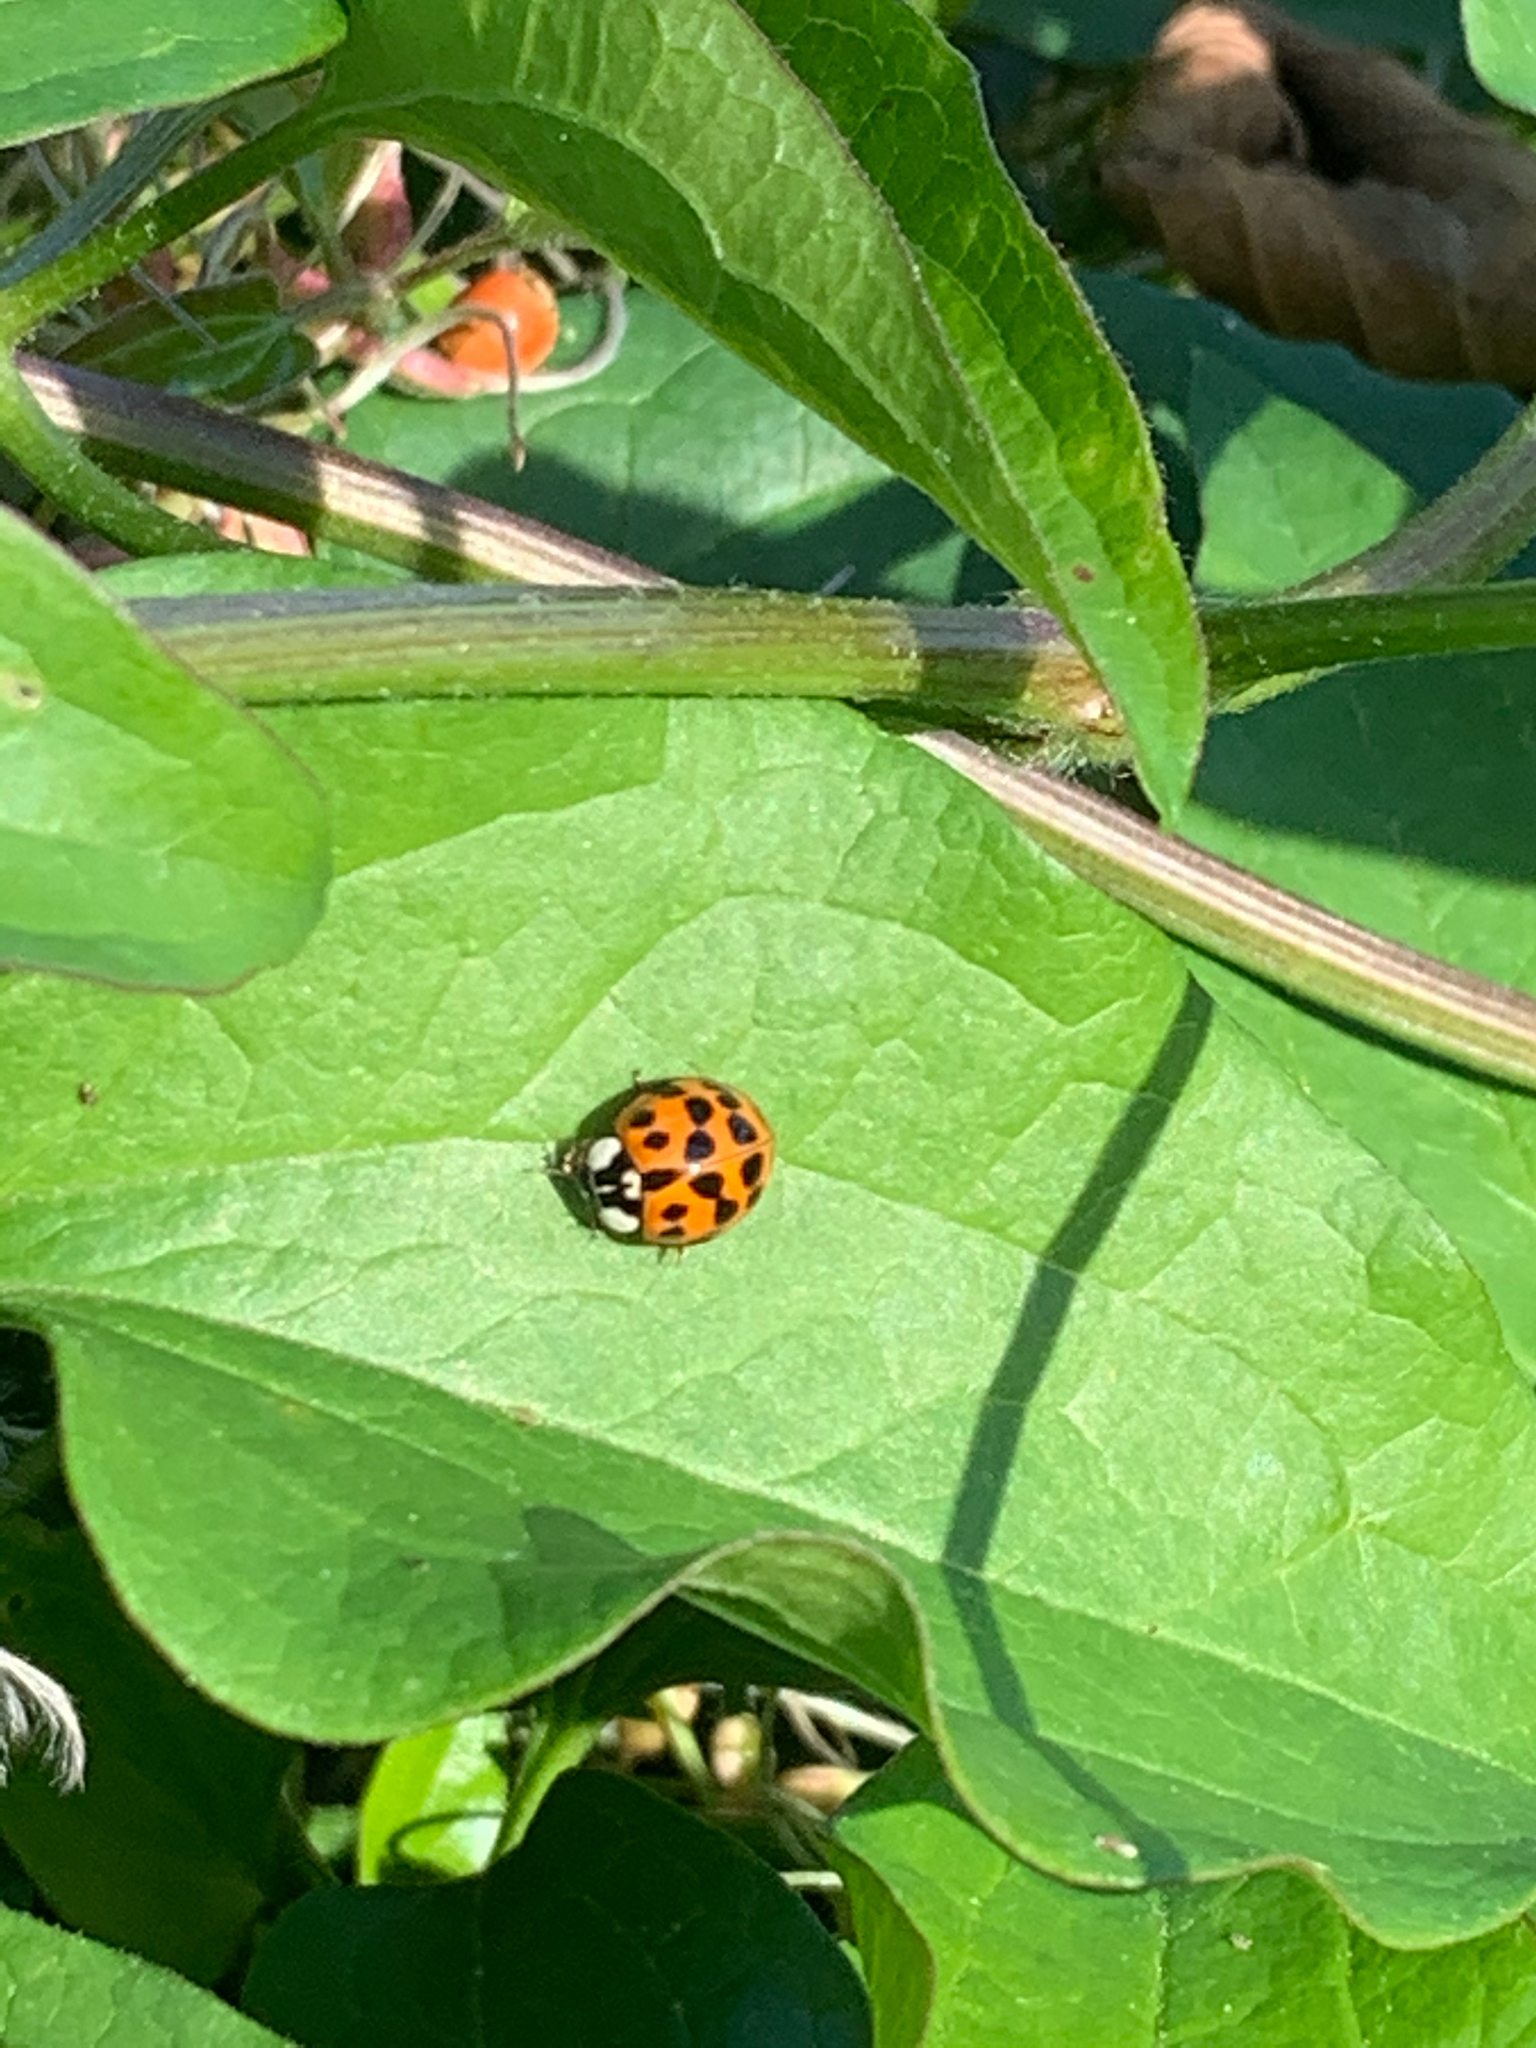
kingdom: Animalia
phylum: Arthropoda
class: Insecta
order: Coleoptera
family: Coccinellidae
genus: Harmonia
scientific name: Harmonia axyridis
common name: Harlequin ladybird
